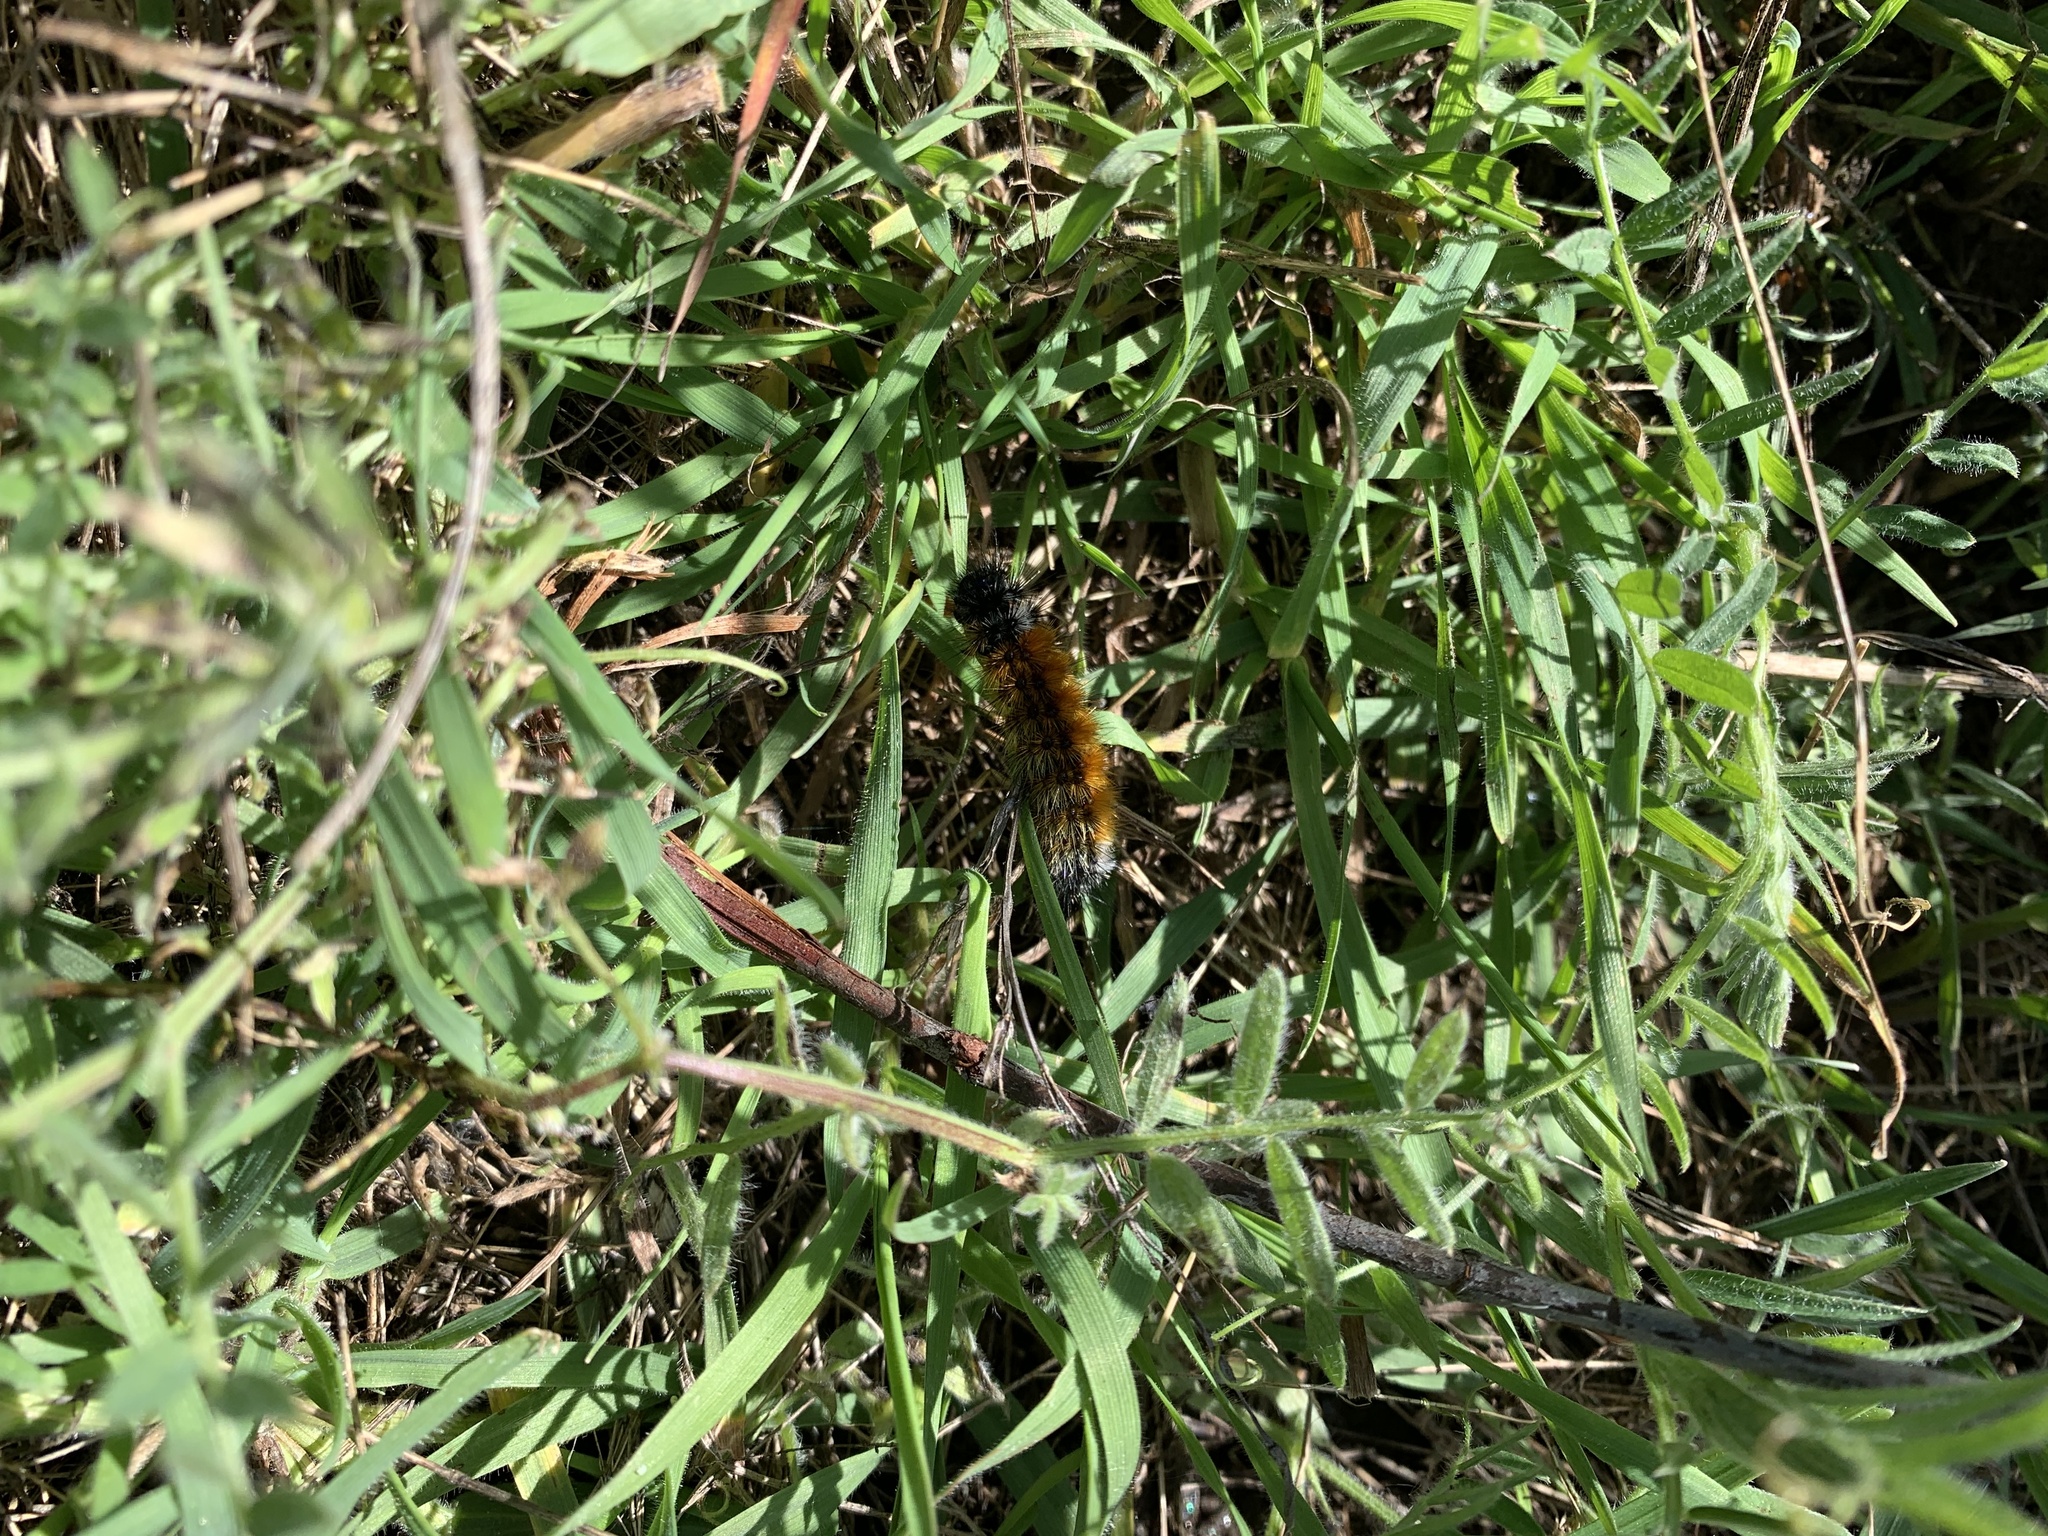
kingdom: Animalia
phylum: Arthropoda
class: Insecta
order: Lepidoptera
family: Erebidae
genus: Chilesia
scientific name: Chilesia
